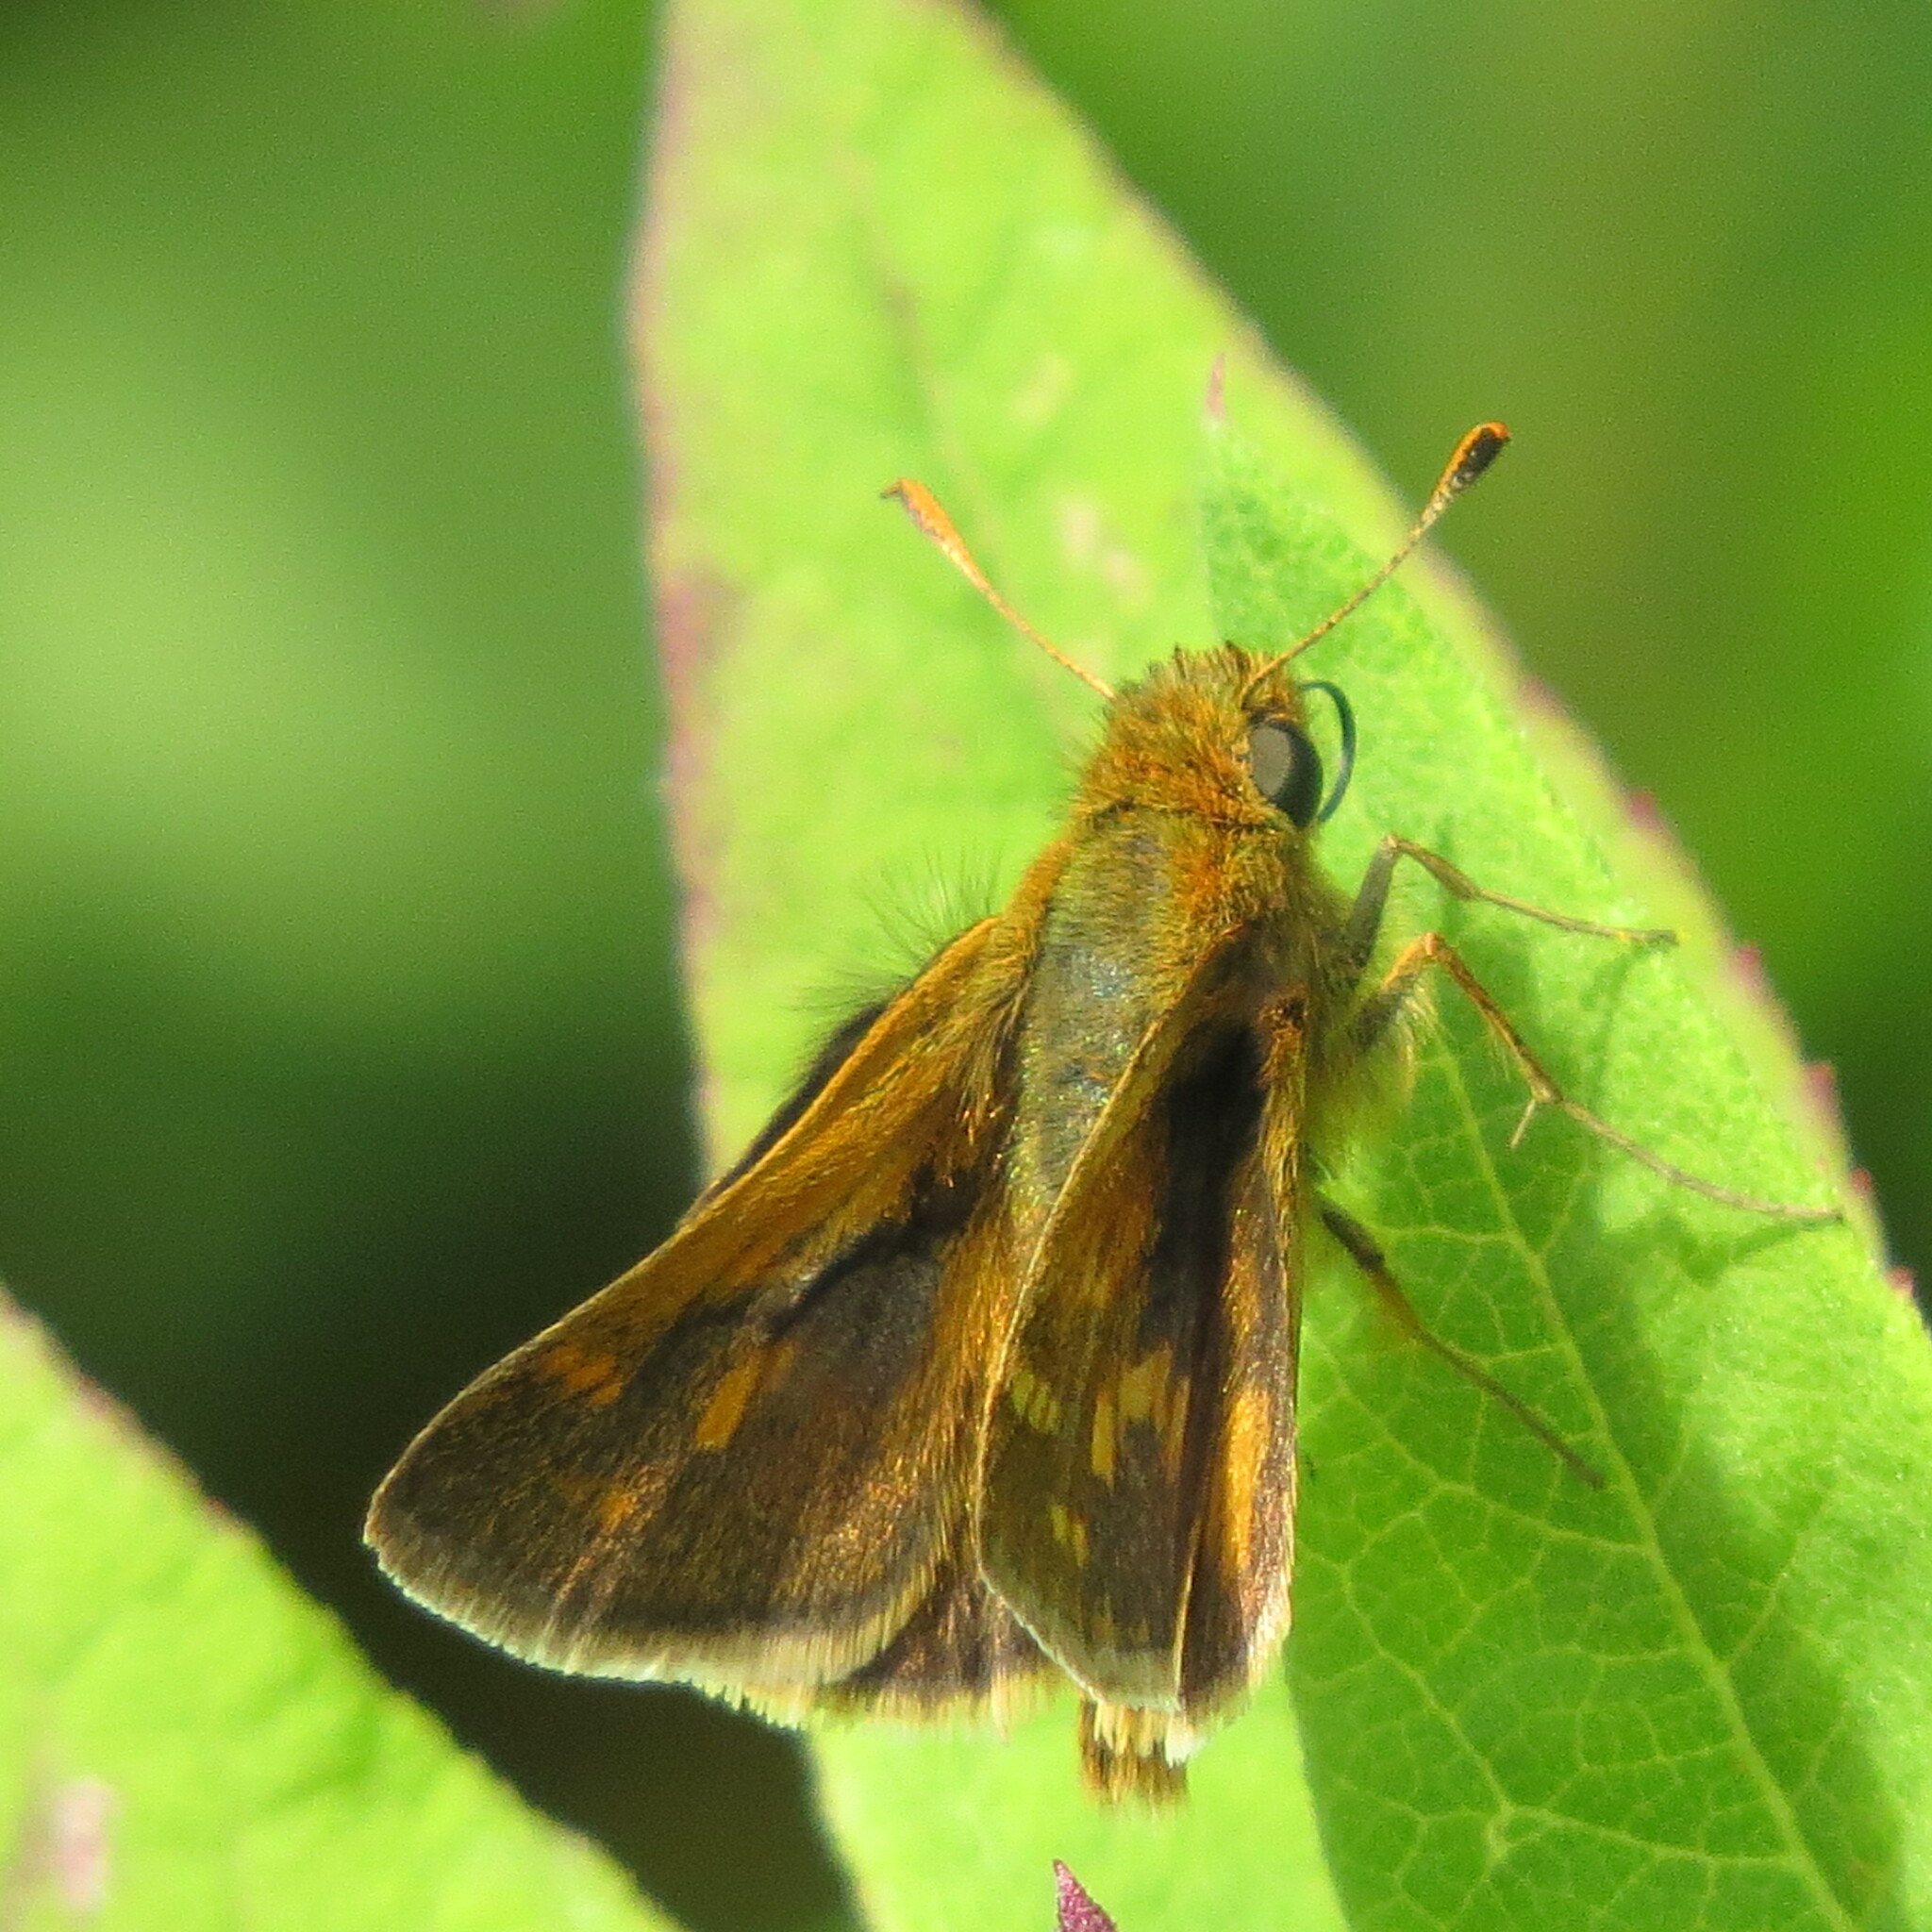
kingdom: Animalia
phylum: Arthropoda
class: Insecta
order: Lepidoptera
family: Hesperiidae
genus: Polites
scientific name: Polites coras
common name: Peck's skipper
